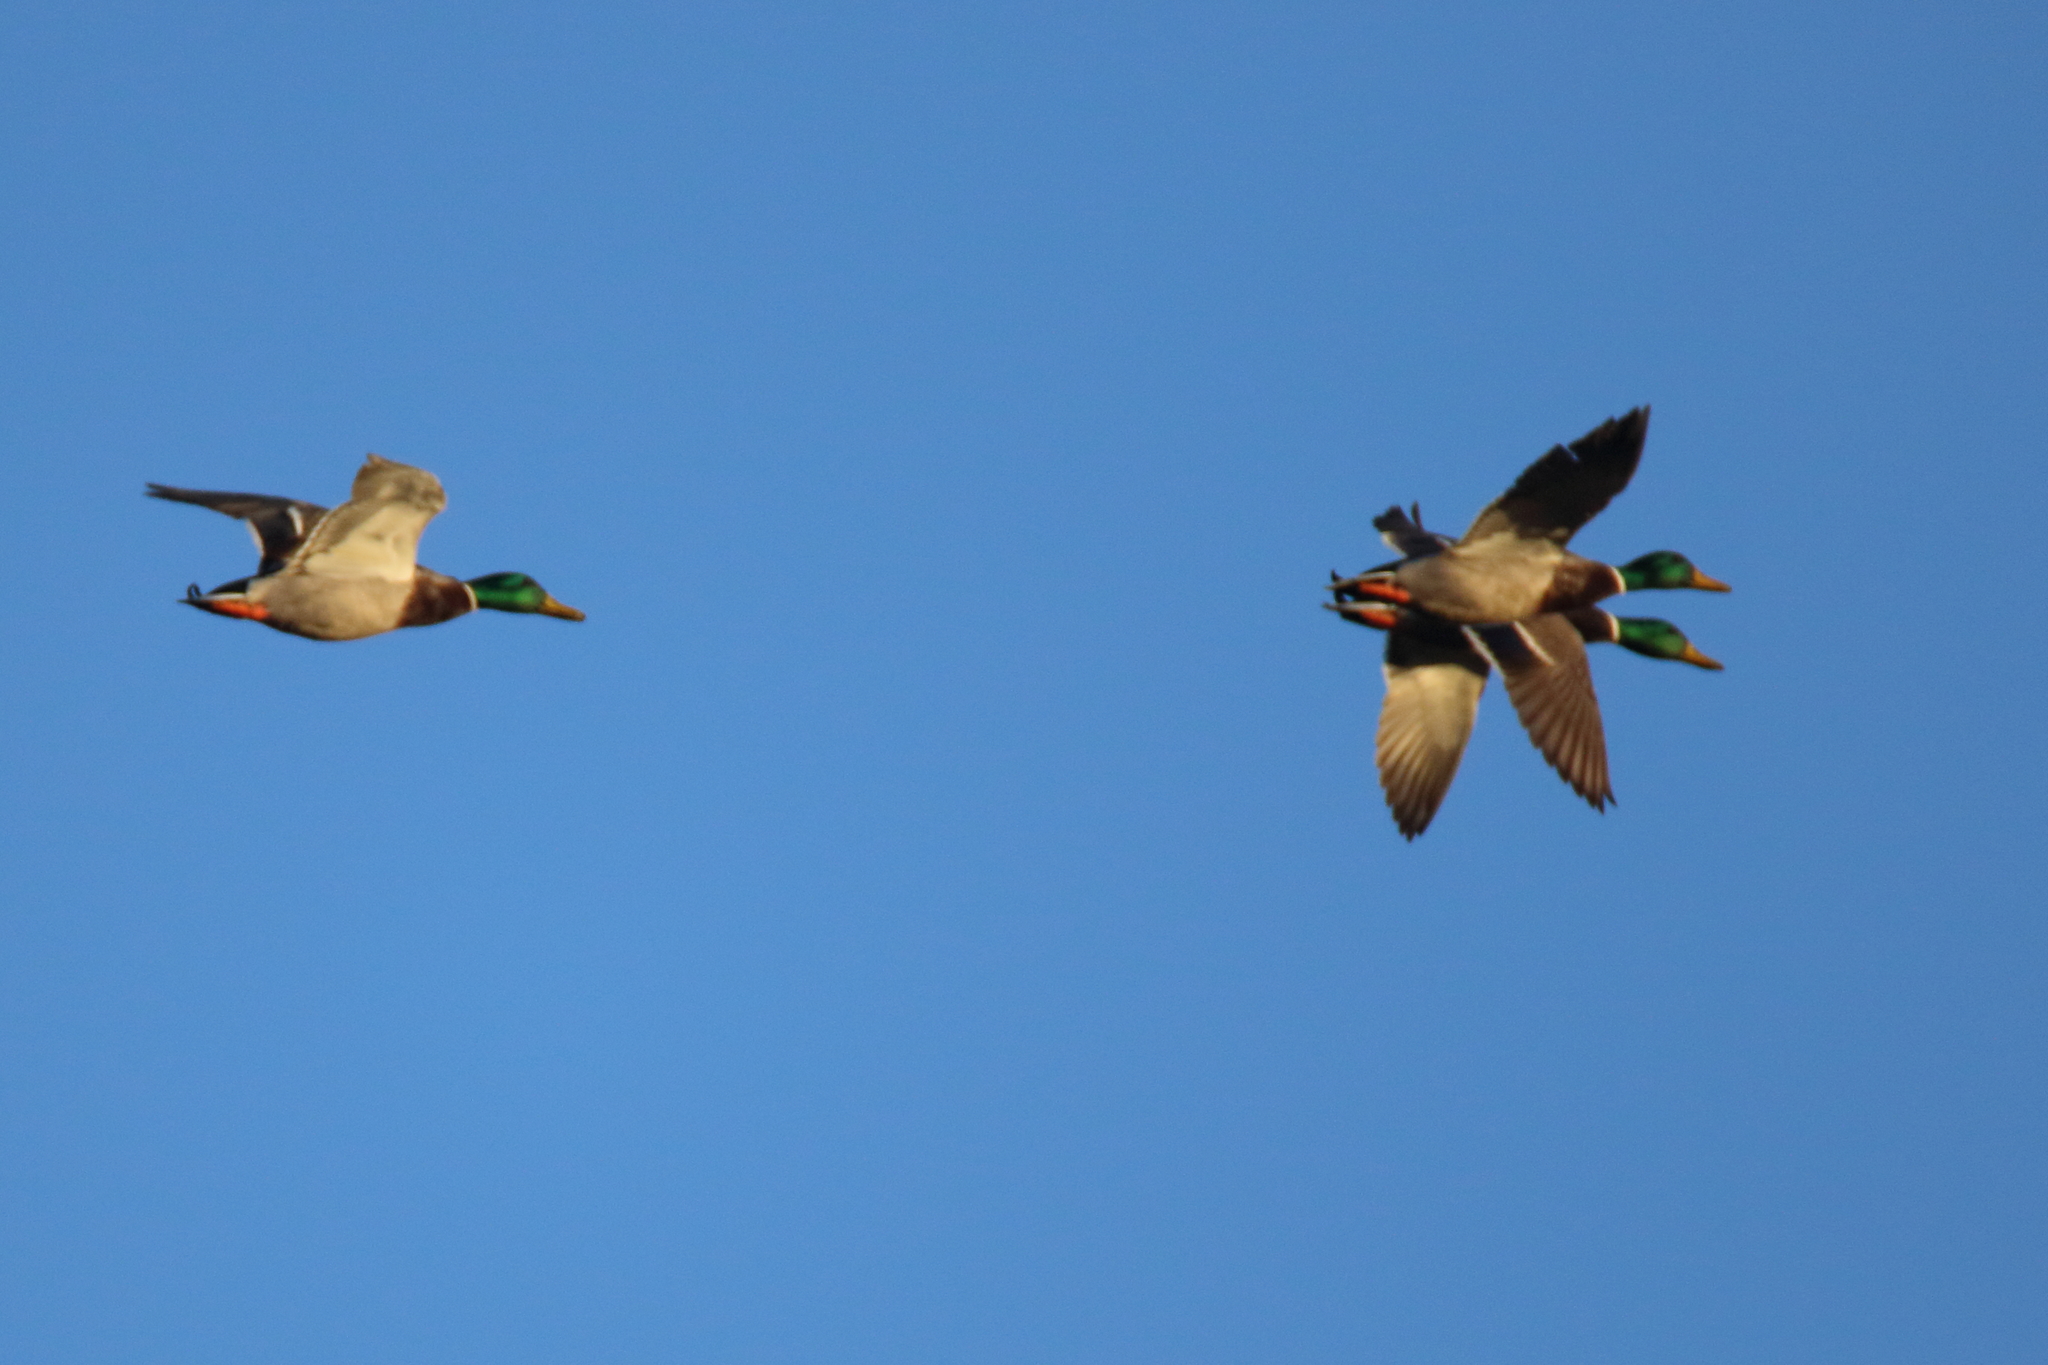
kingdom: Animalia
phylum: Chordata
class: Aves
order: Anseriformes
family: Anatidae
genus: Anas
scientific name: Anas platyrhynchos
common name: Mallard
